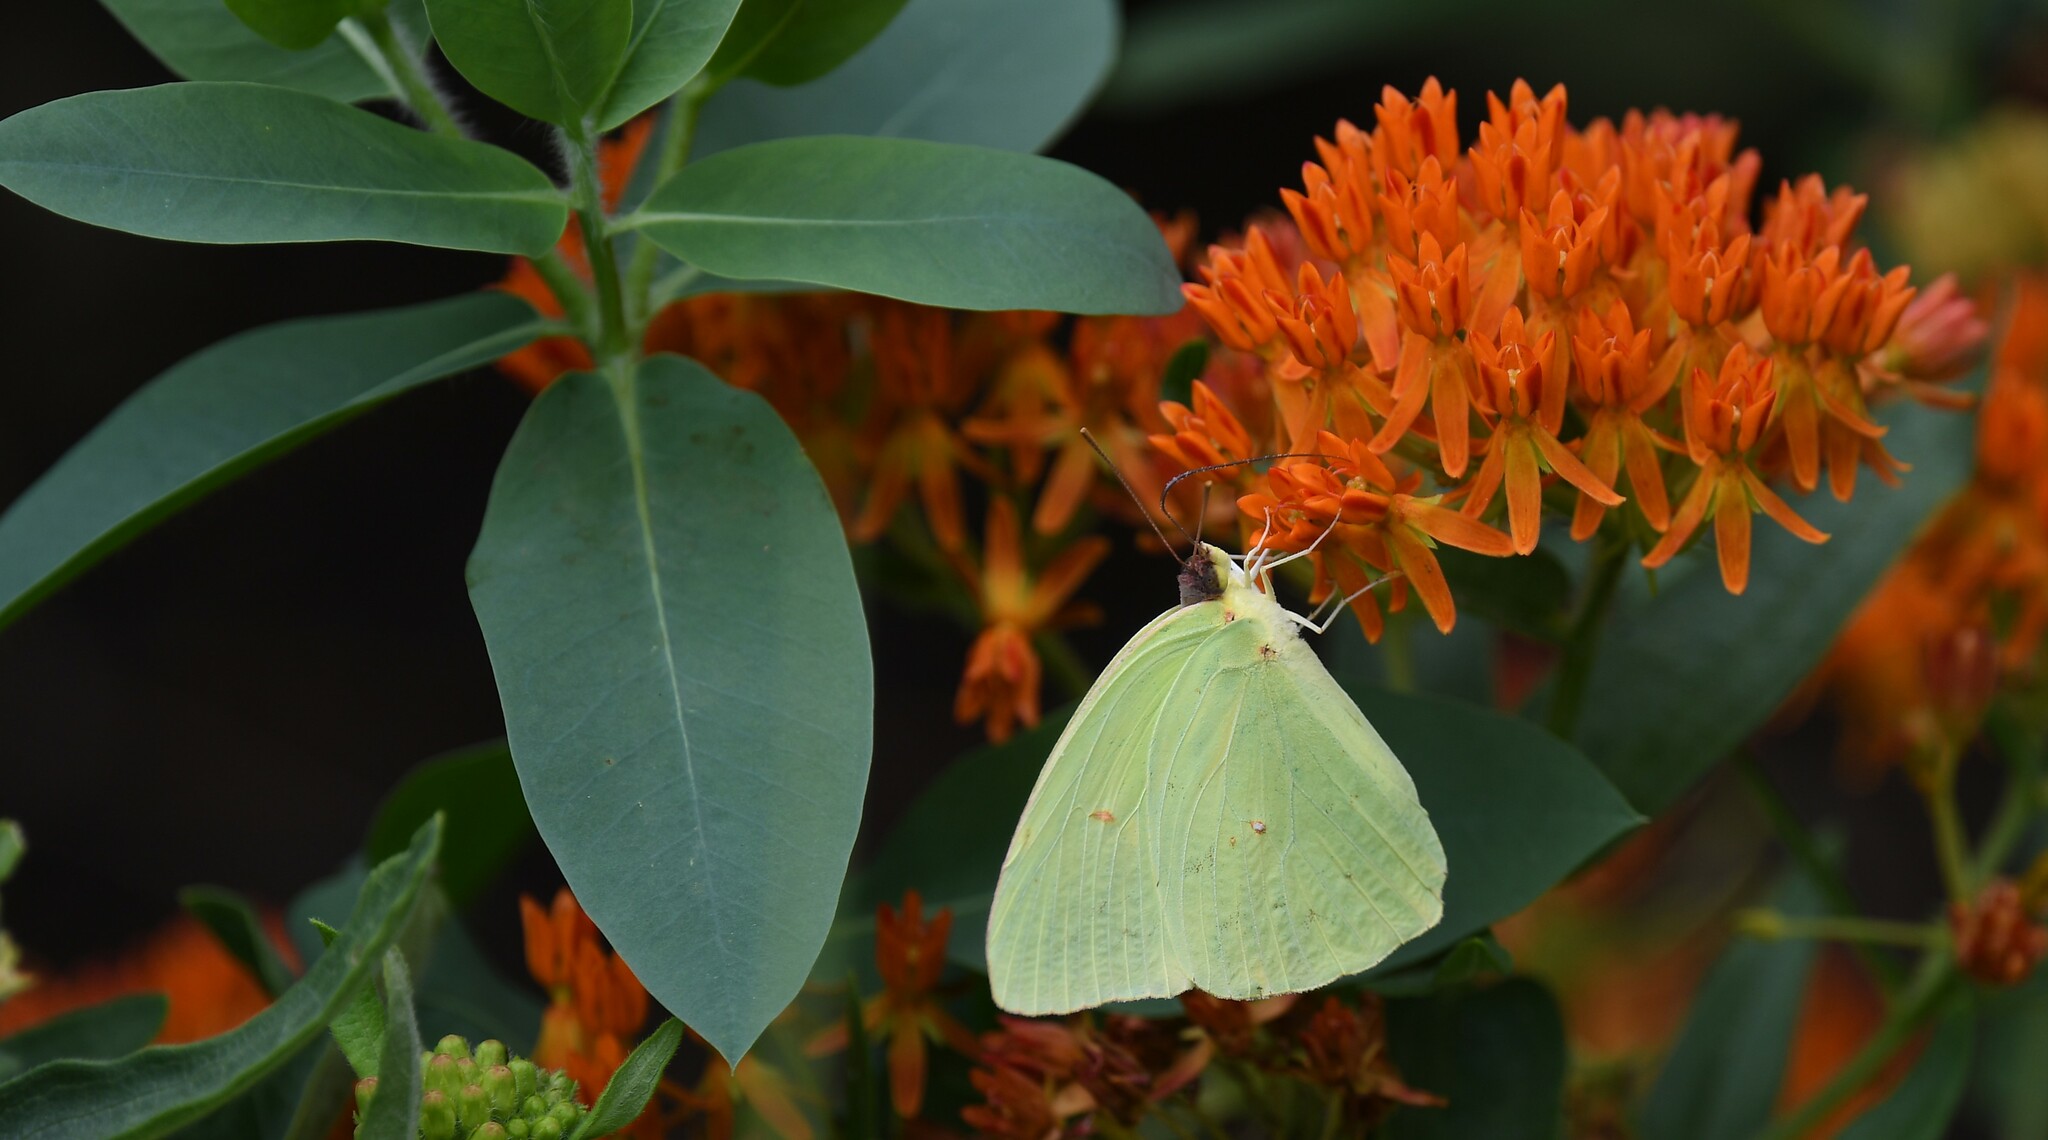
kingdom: Animalia
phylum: Arthropoda
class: Insecta
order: Lepidoptera
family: Pieridae
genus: Phoebis
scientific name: Phoebis sennae
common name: Cloudless sulphur
